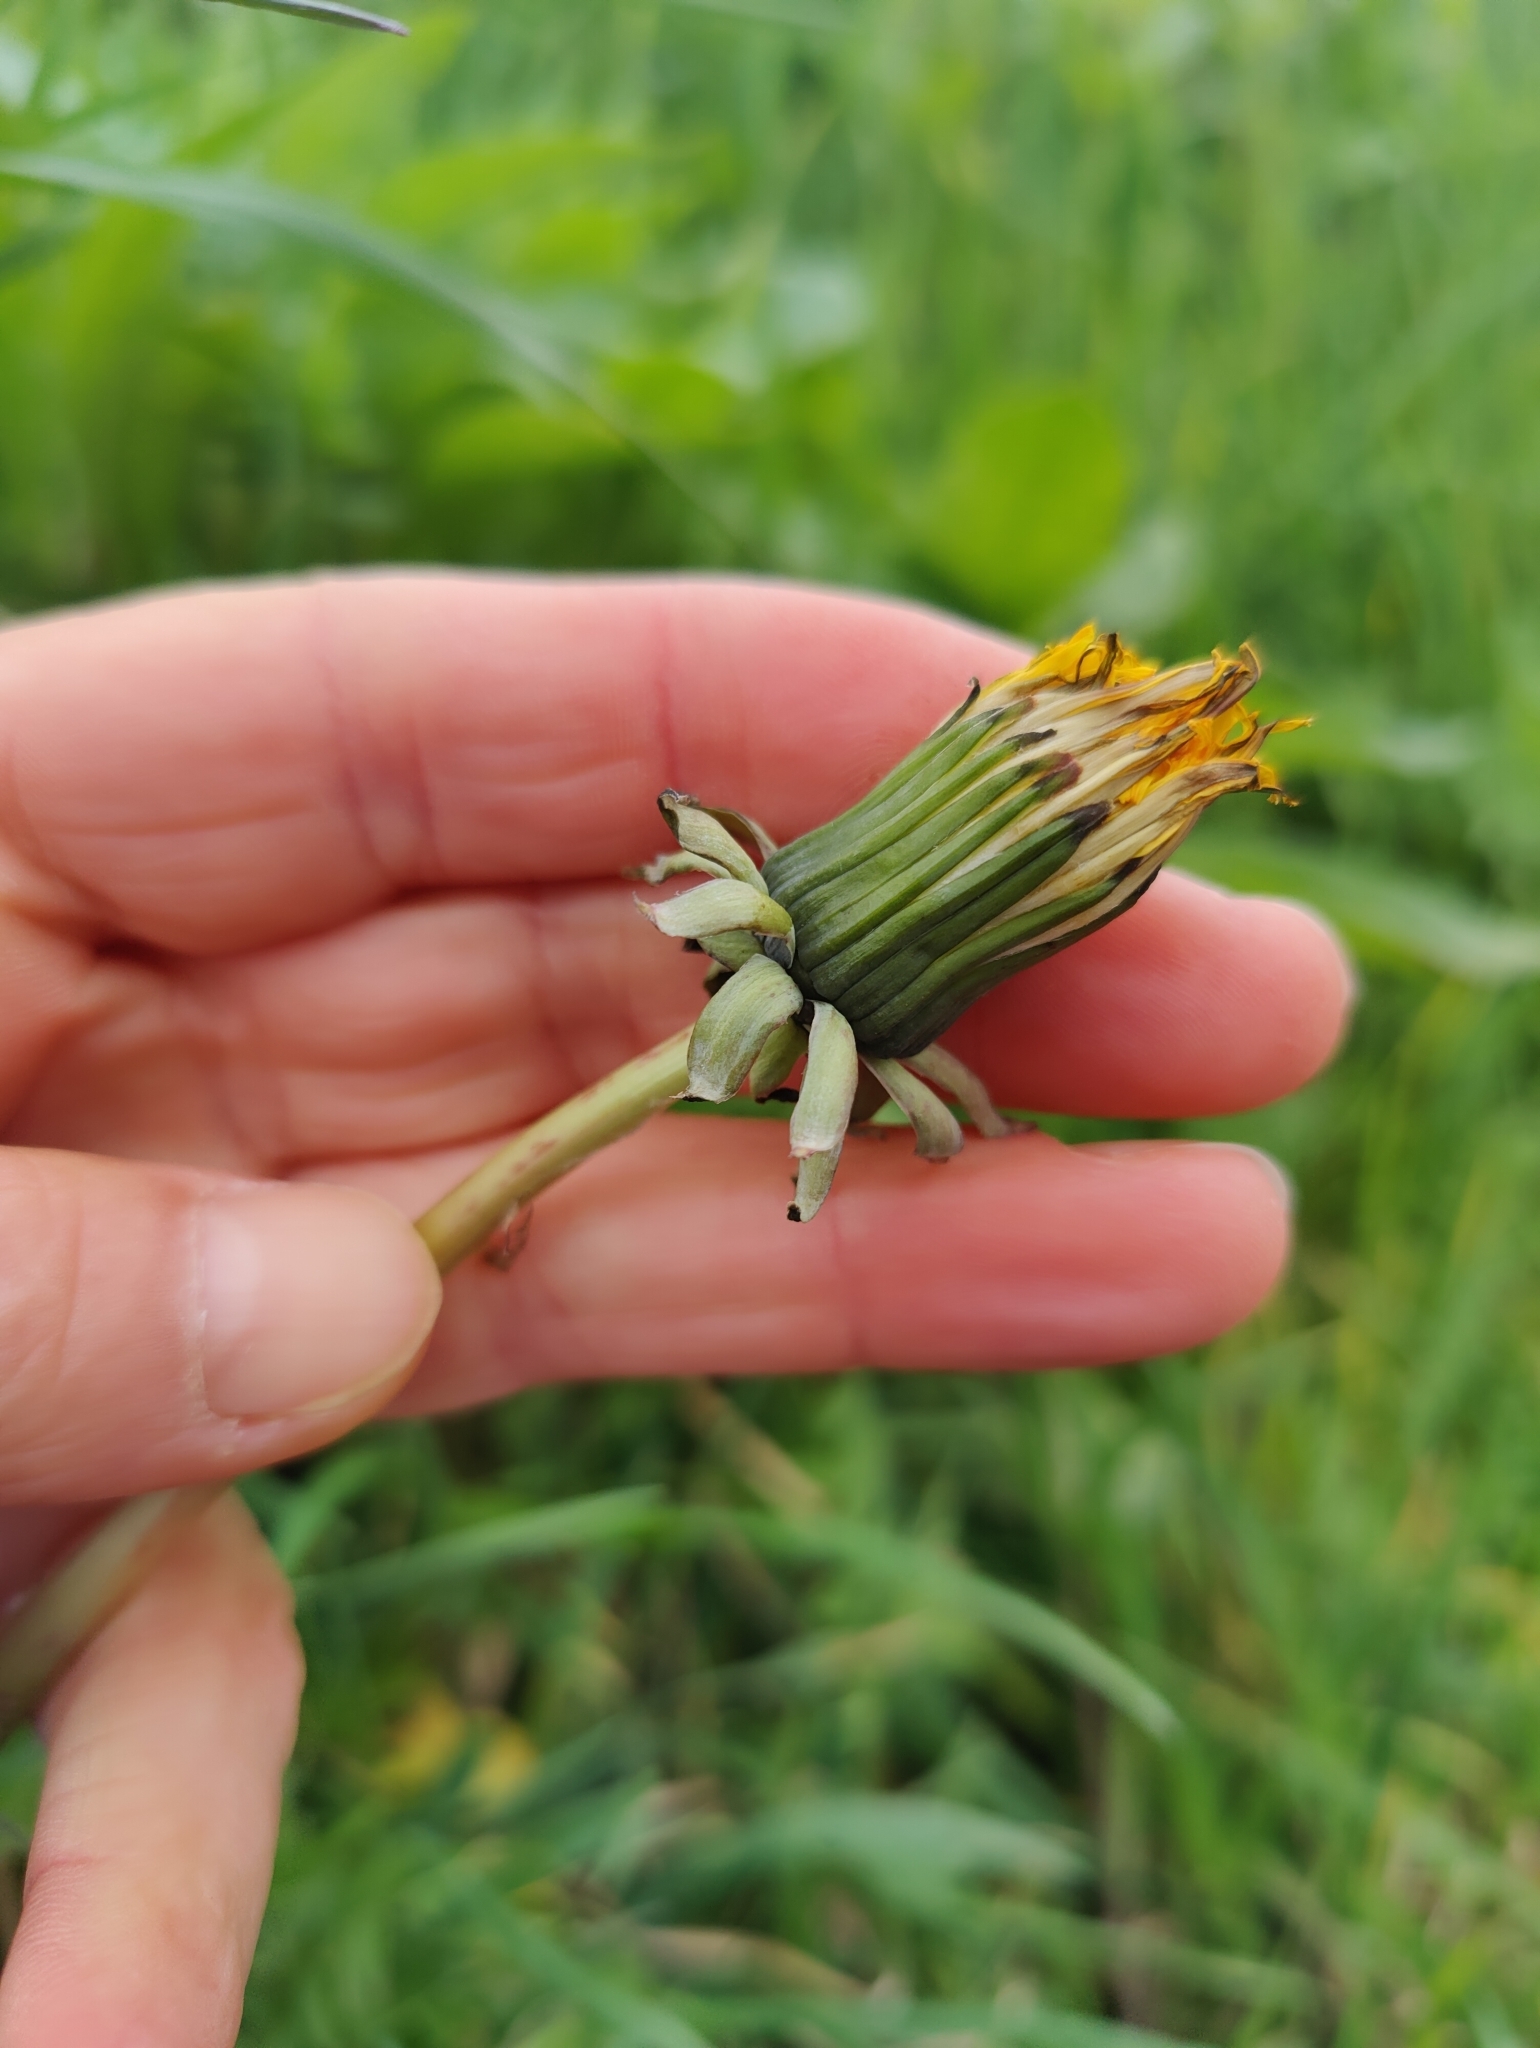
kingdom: Plantae
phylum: Tracheophyta
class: Magnoliopsida
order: Asterales
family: Asteraceae
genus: Taraxacum
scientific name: Taraxacum officinale
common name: Common dandelion
